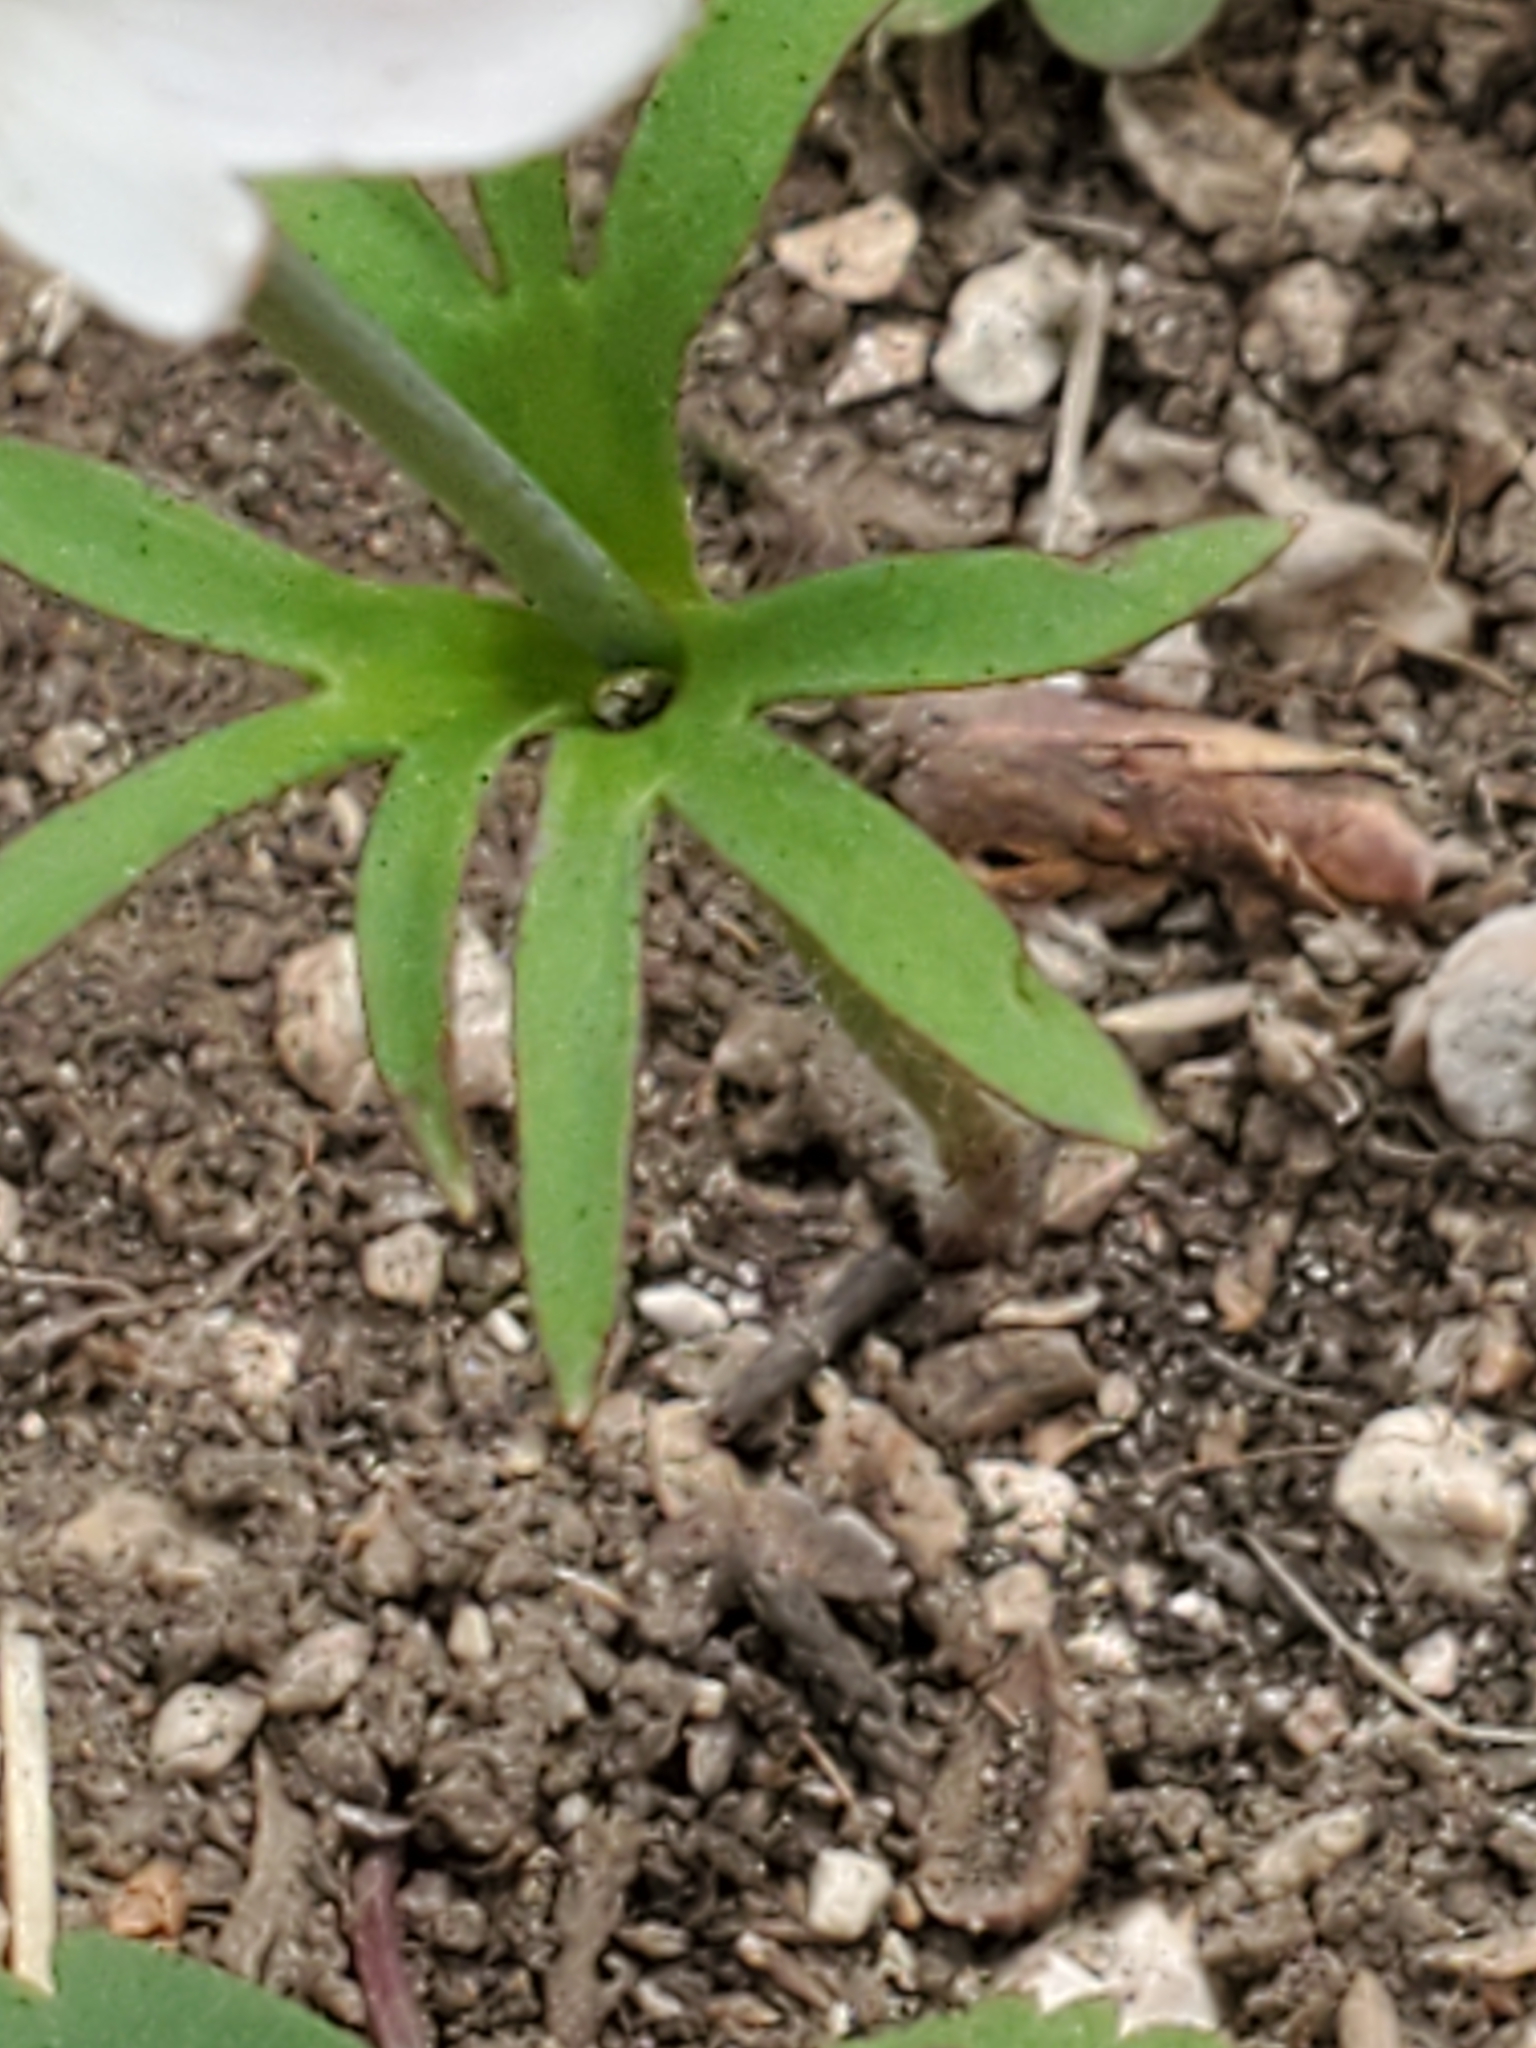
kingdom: Plantae
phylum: Tracheophyta
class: Magnoliopsida
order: Ranunculales
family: Ranunculaceae
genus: Anemone
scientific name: Anemone edwardsiana
